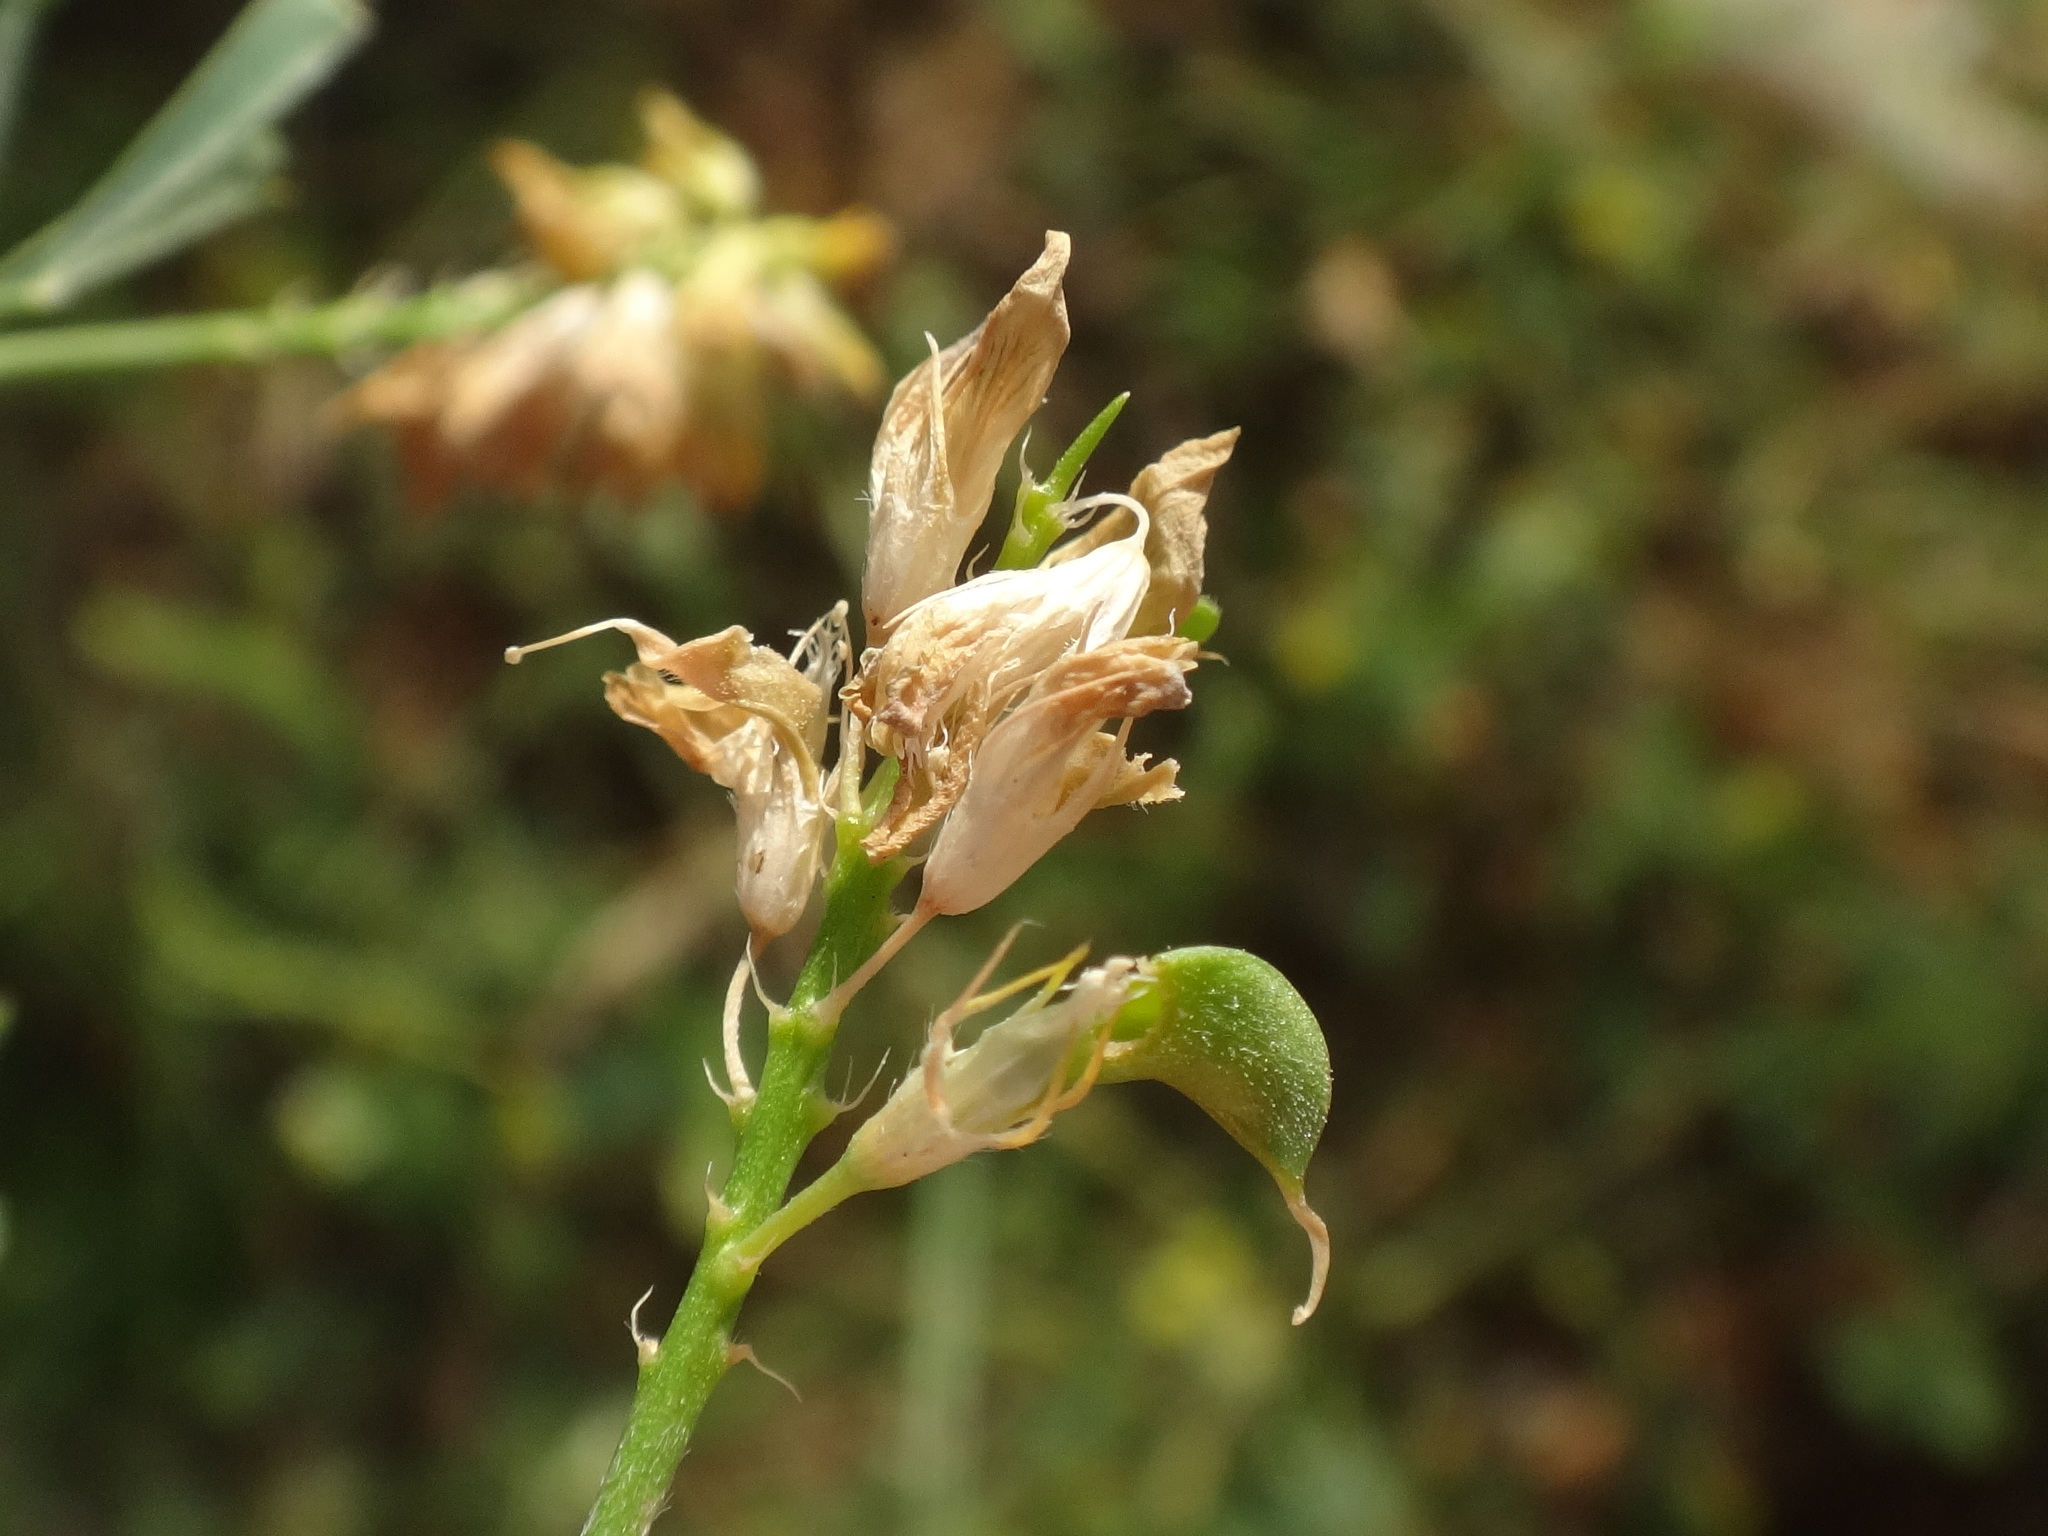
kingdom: Plantae
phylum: Tracheophyta
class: Magnoliopsida
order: Fabales
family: Fabaceae
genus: Medicago
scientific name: Medicago falcata
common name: Sickle medick
